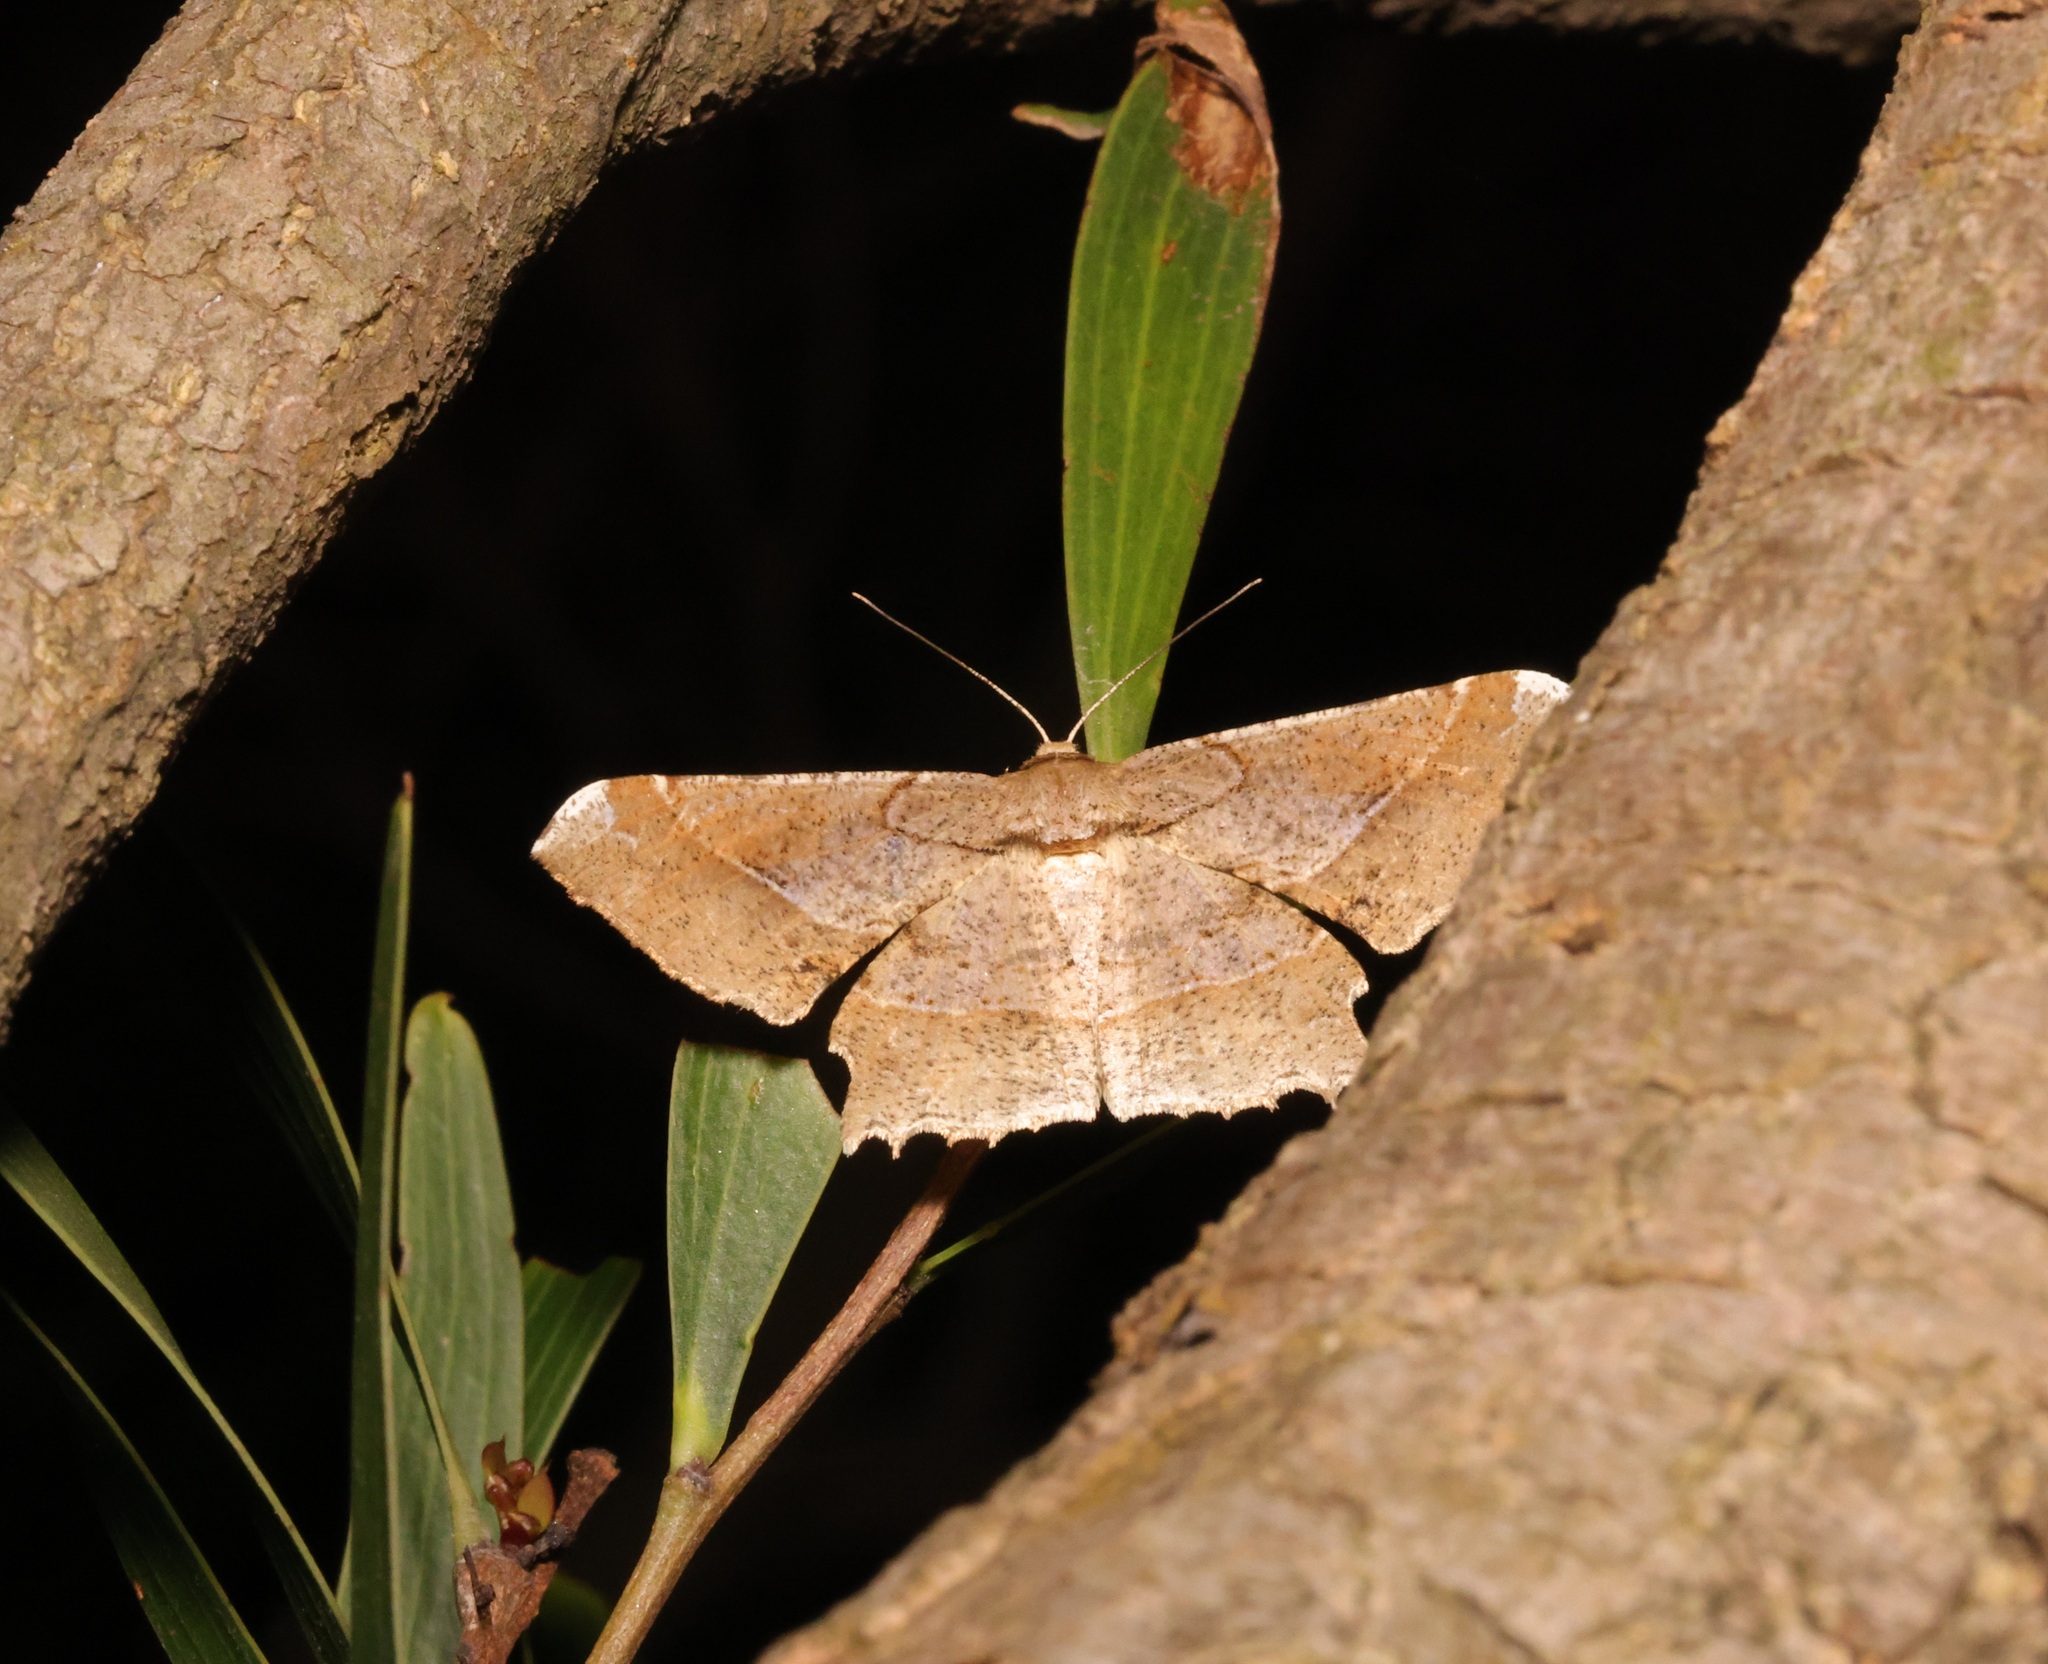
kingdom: Animalia
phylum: Arthropoda
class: Insecta
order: Lepidoptera
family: Geometridae
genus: Krananda
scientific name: Krananda latimarginaria
